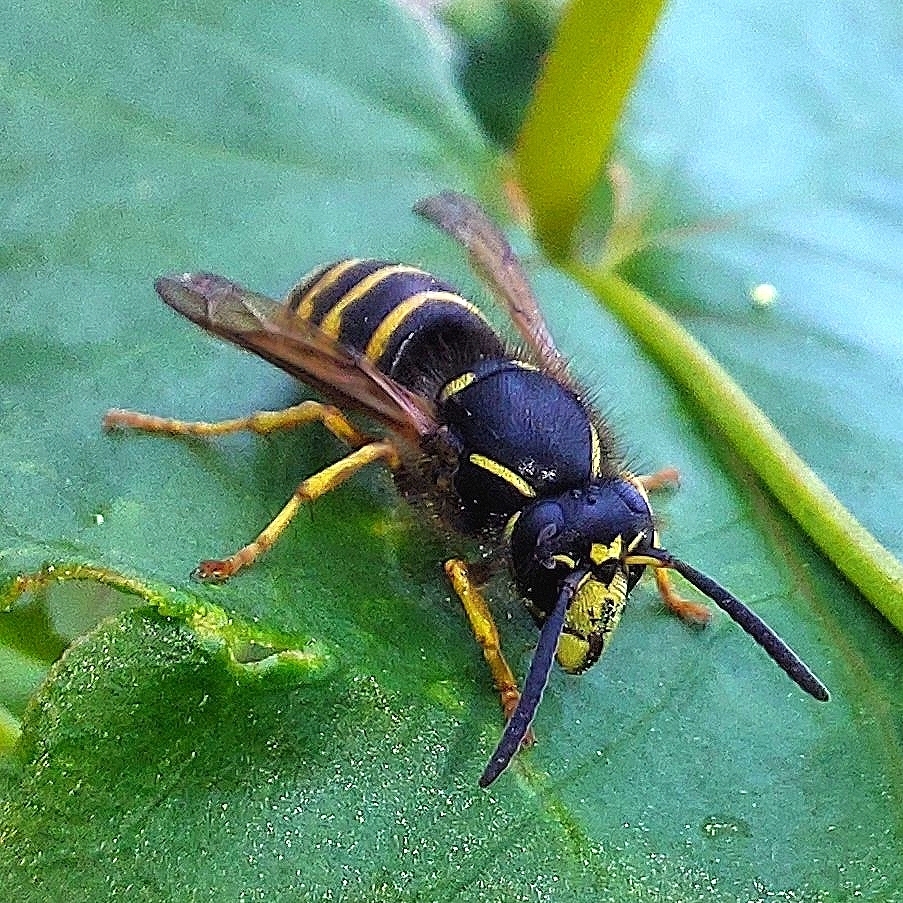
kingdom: Animalia
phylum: Arthropoda
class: Insecta
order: Hymenoptera
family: Vespidae
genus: Dolichovespula
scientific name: Dolichovespula saxonica
